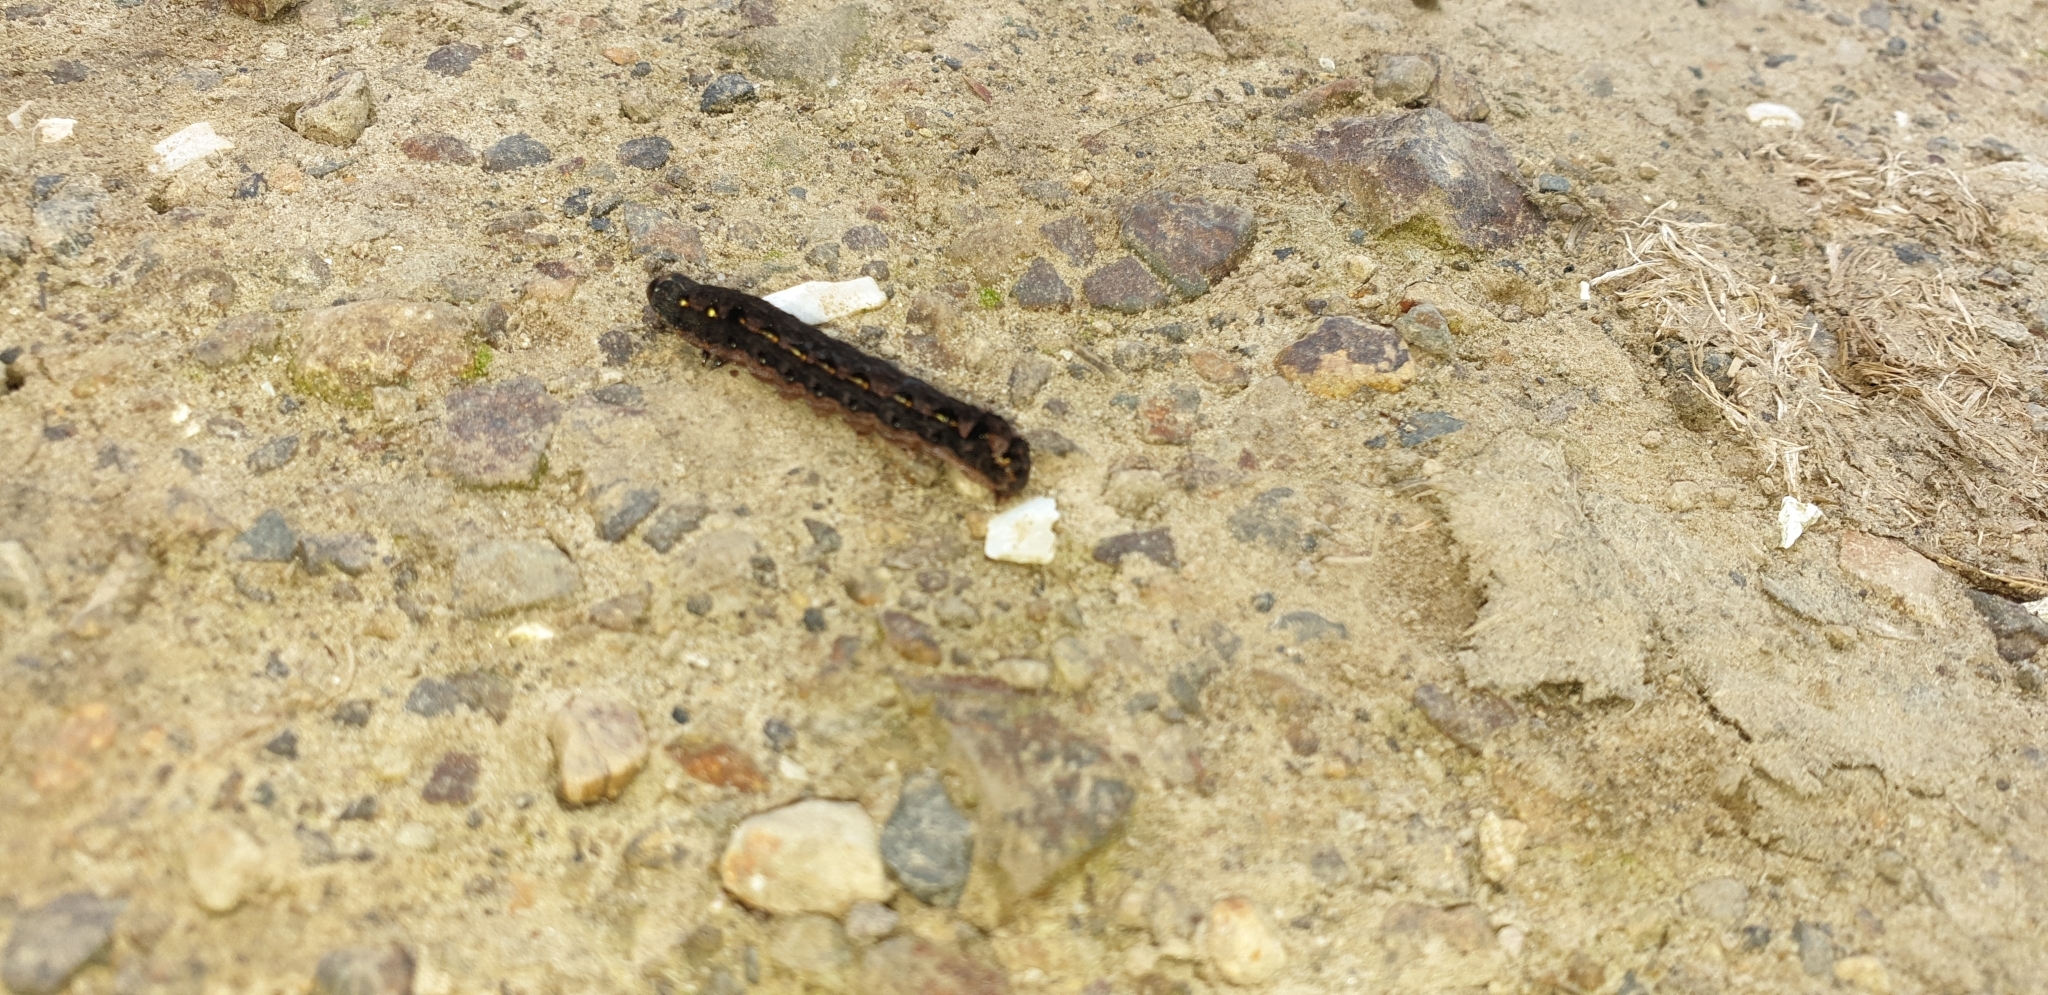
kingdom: Animalia
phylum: Arthropoda
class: Insecta
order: Lepidoptera
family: Noctuidae
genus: Spodoptera
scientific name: Spodoptera litura
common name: Asian cotton leafworm
